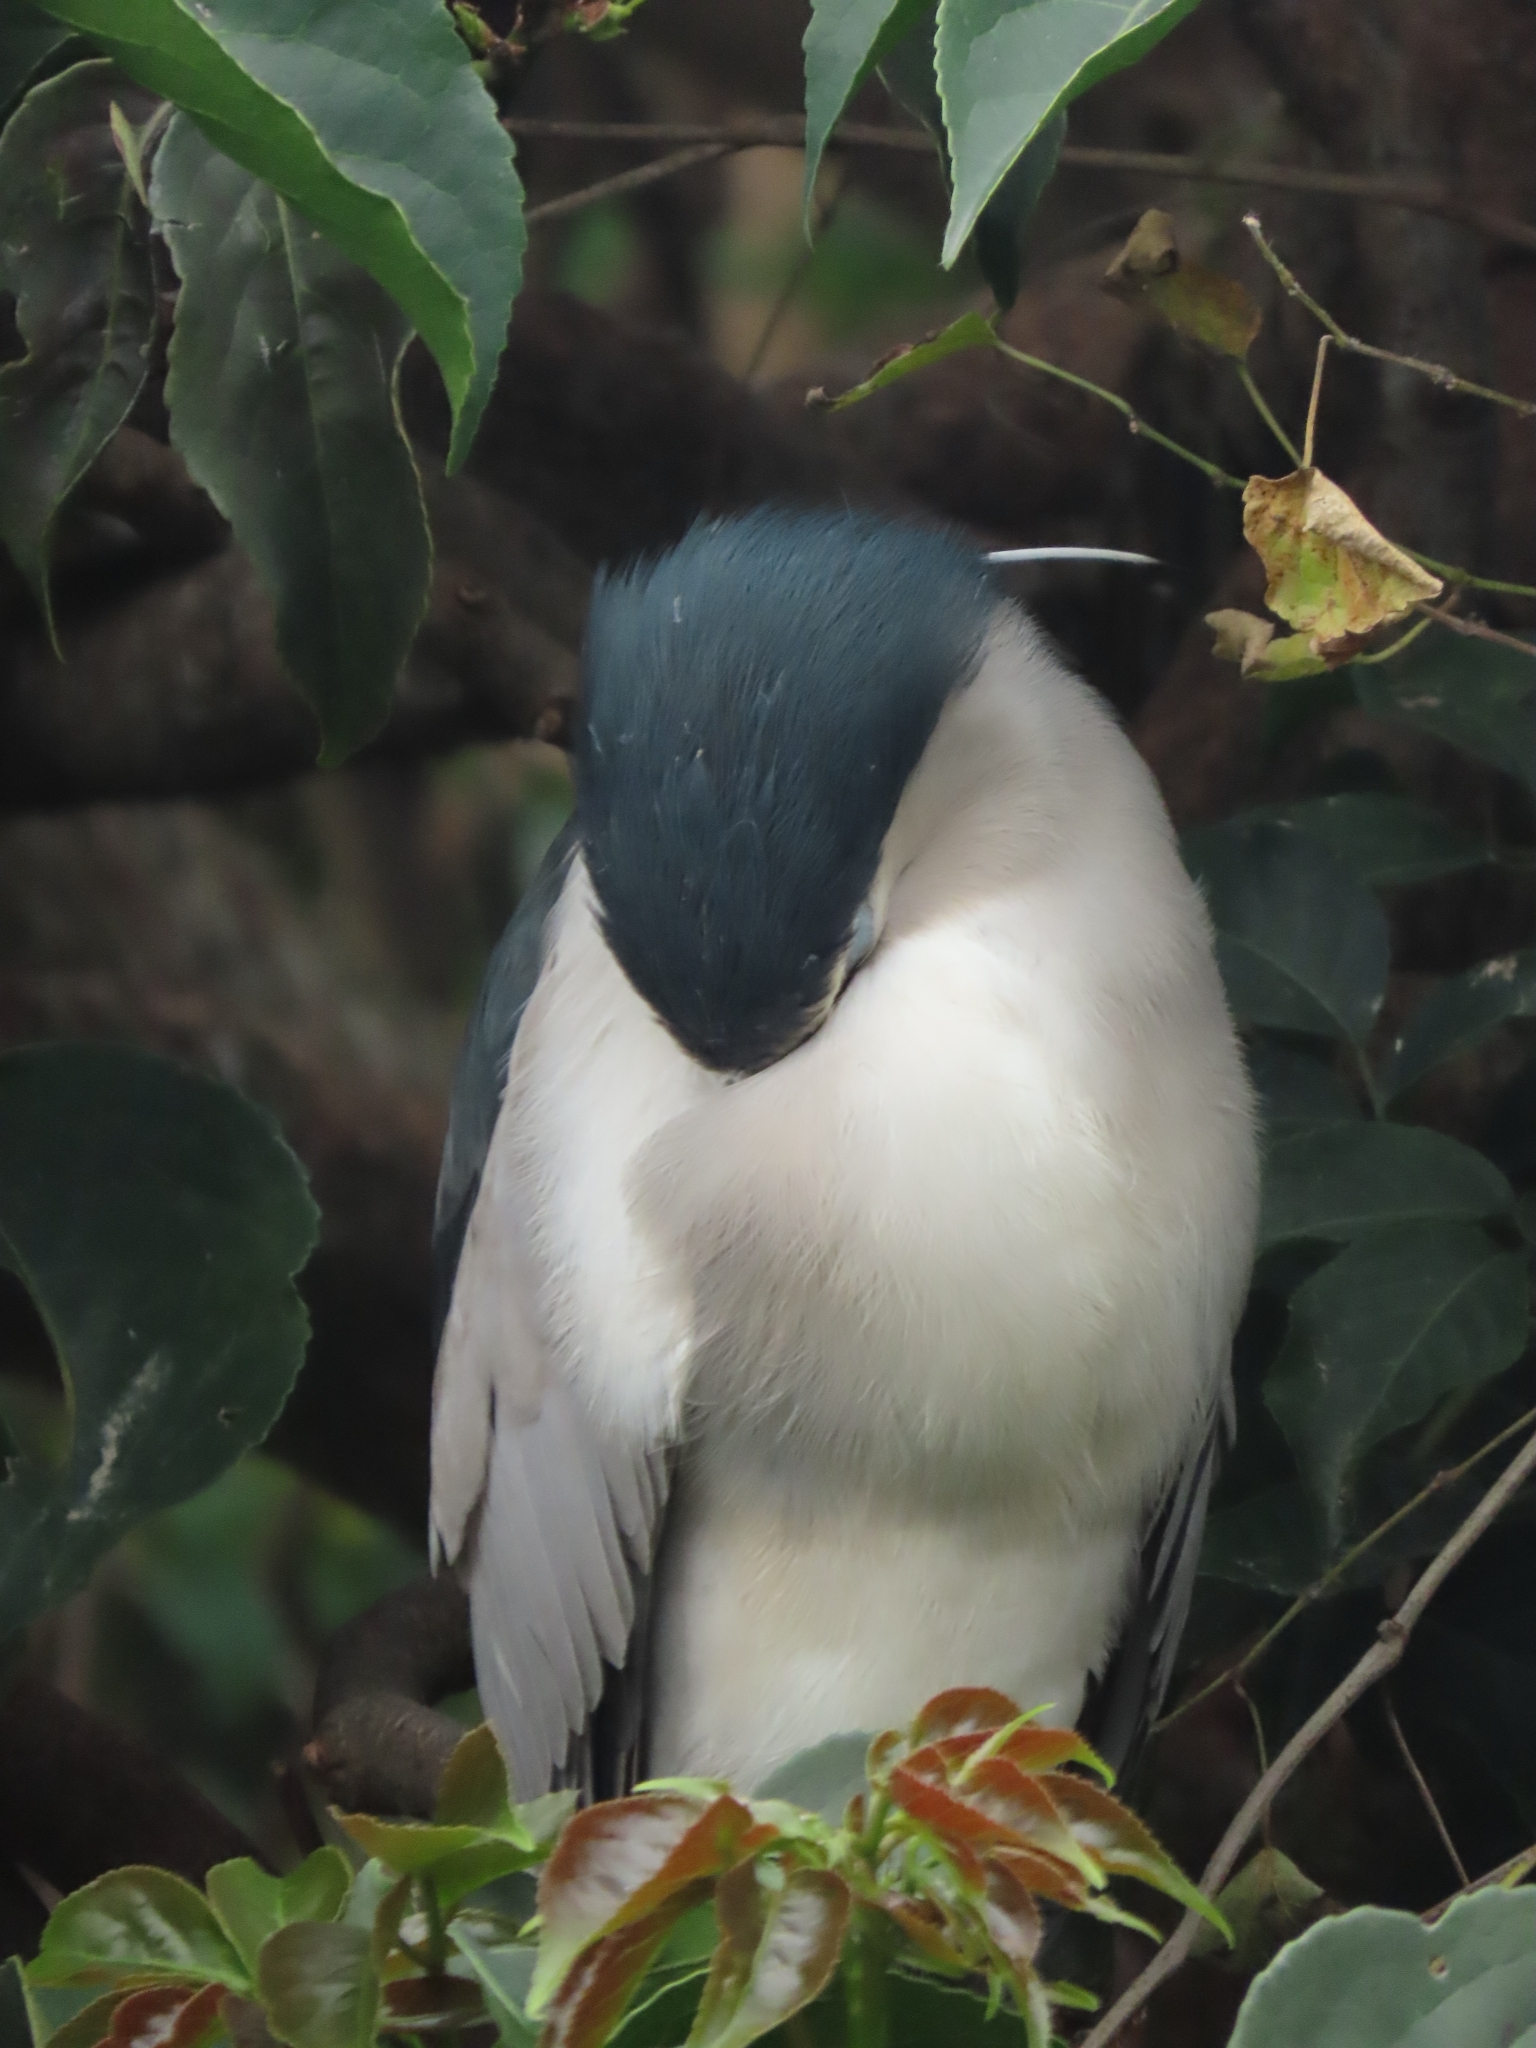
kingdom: Animalia
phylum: Chordata
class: Aves
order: Pelecaniformes
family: Ardeidae
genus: Nycticorax
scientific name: Nycticorax nycticorax
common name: Black-crowned night heron
